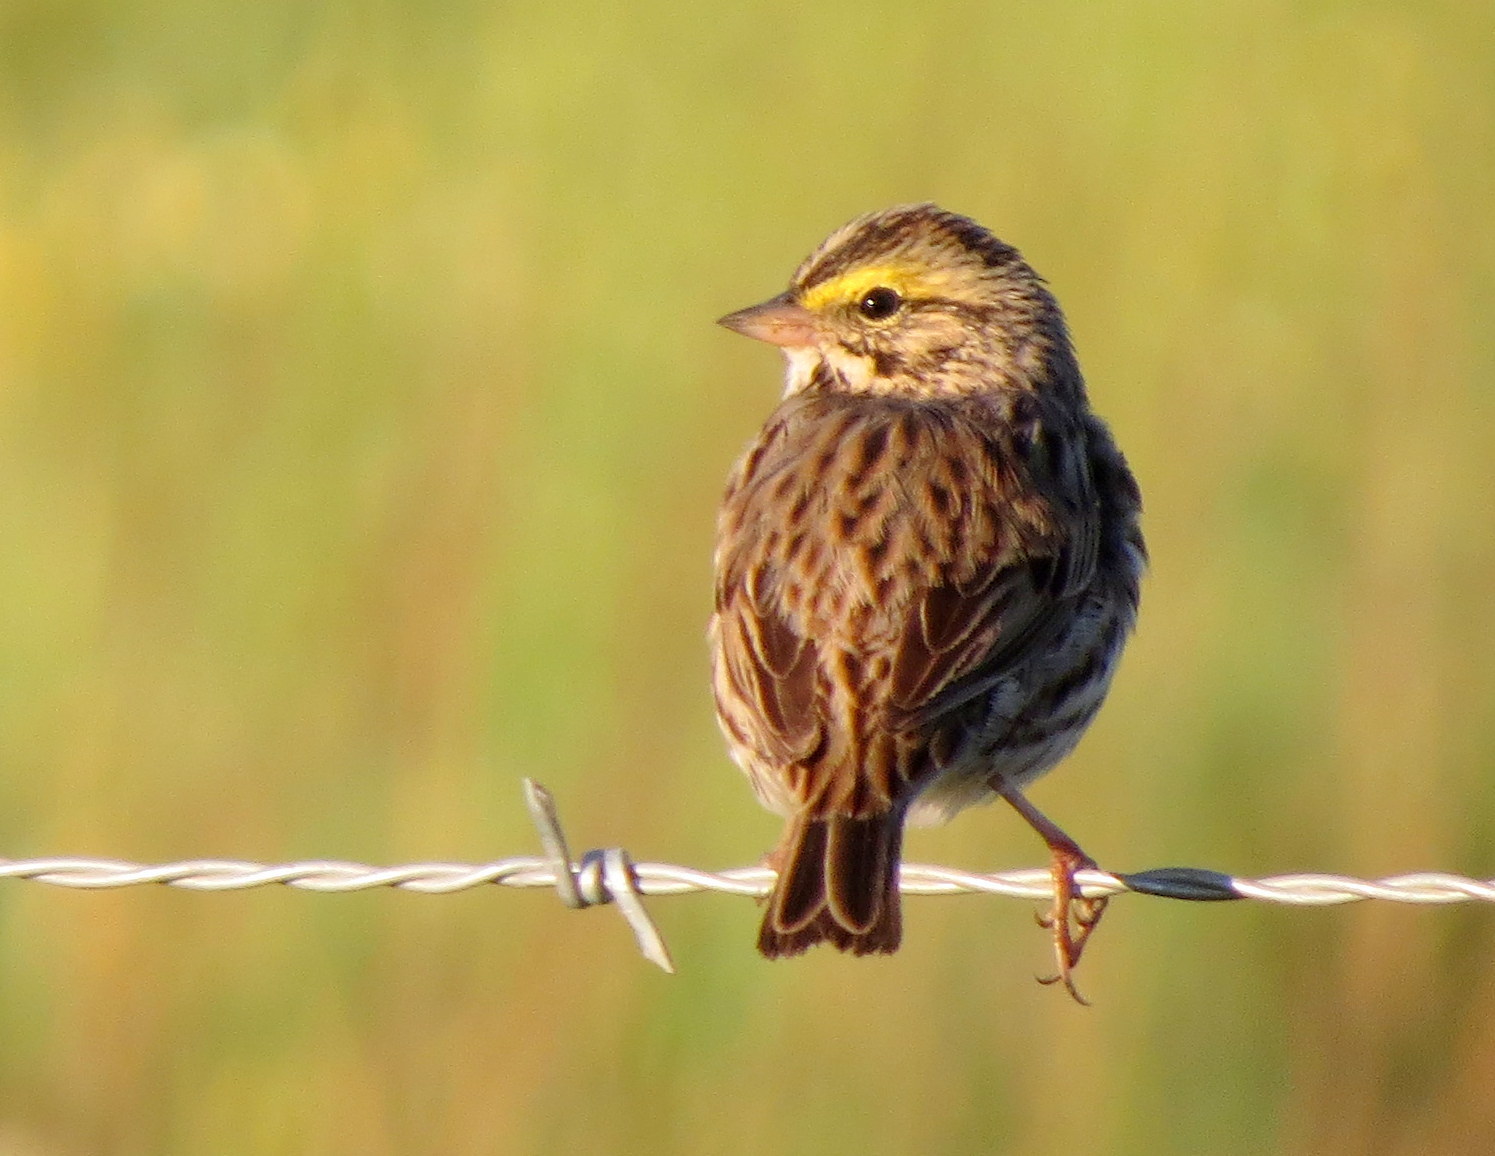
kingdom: Animalia
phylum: Chordata
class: Aves
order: Passeriformes
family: Passerellidae
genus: Passerculus
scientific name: Passerculus sandwichensis
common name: Savannah sparrow
